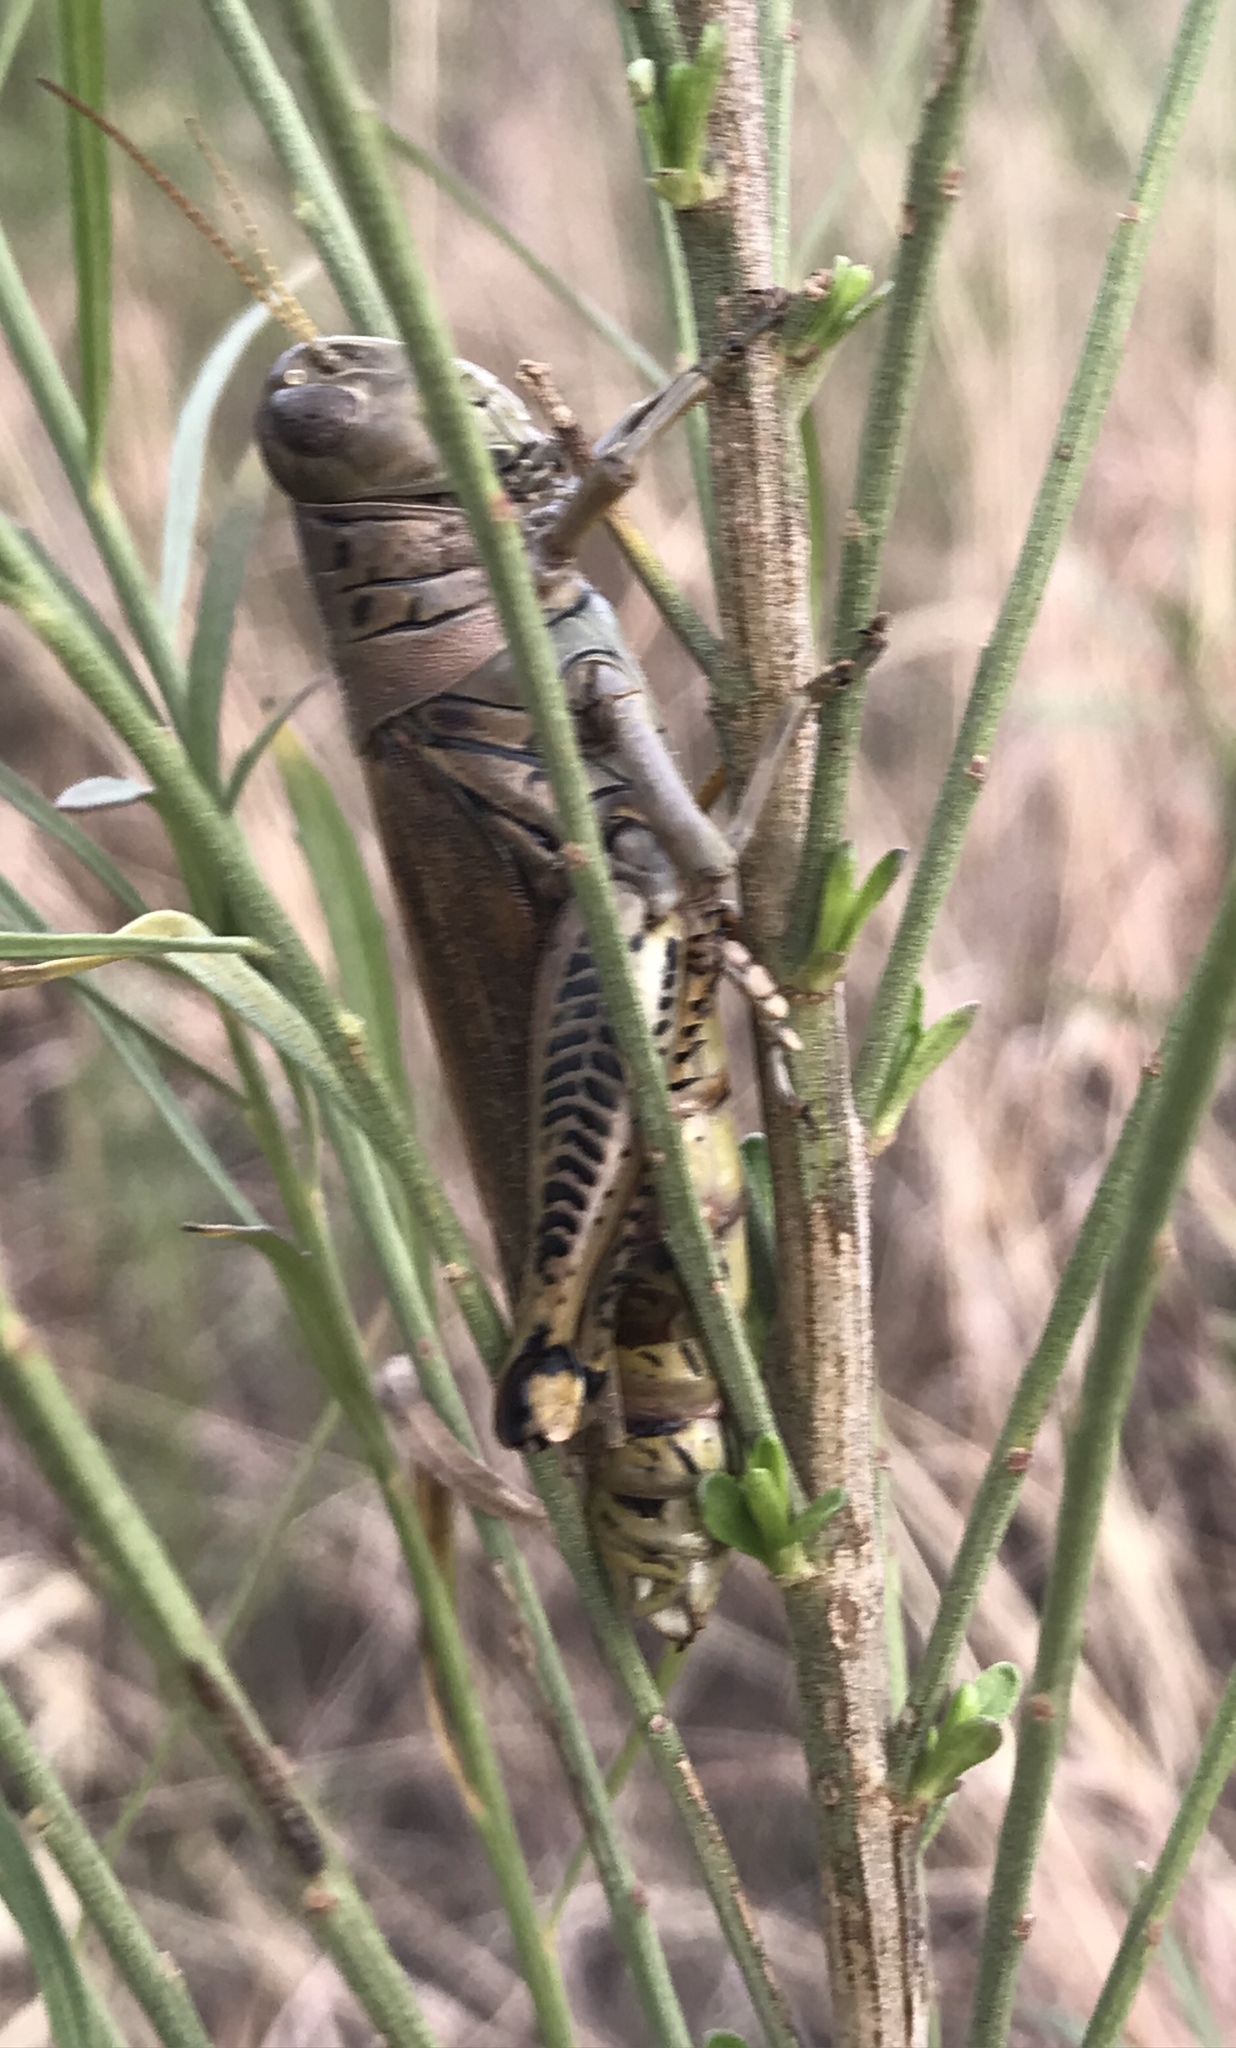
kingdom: Animalia
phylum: Arthropoda
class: Insecta
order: Orthoptera
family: Acrididae
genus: Melanoplus
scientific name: Melanoplus differentialis
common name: Differential grasshopper
